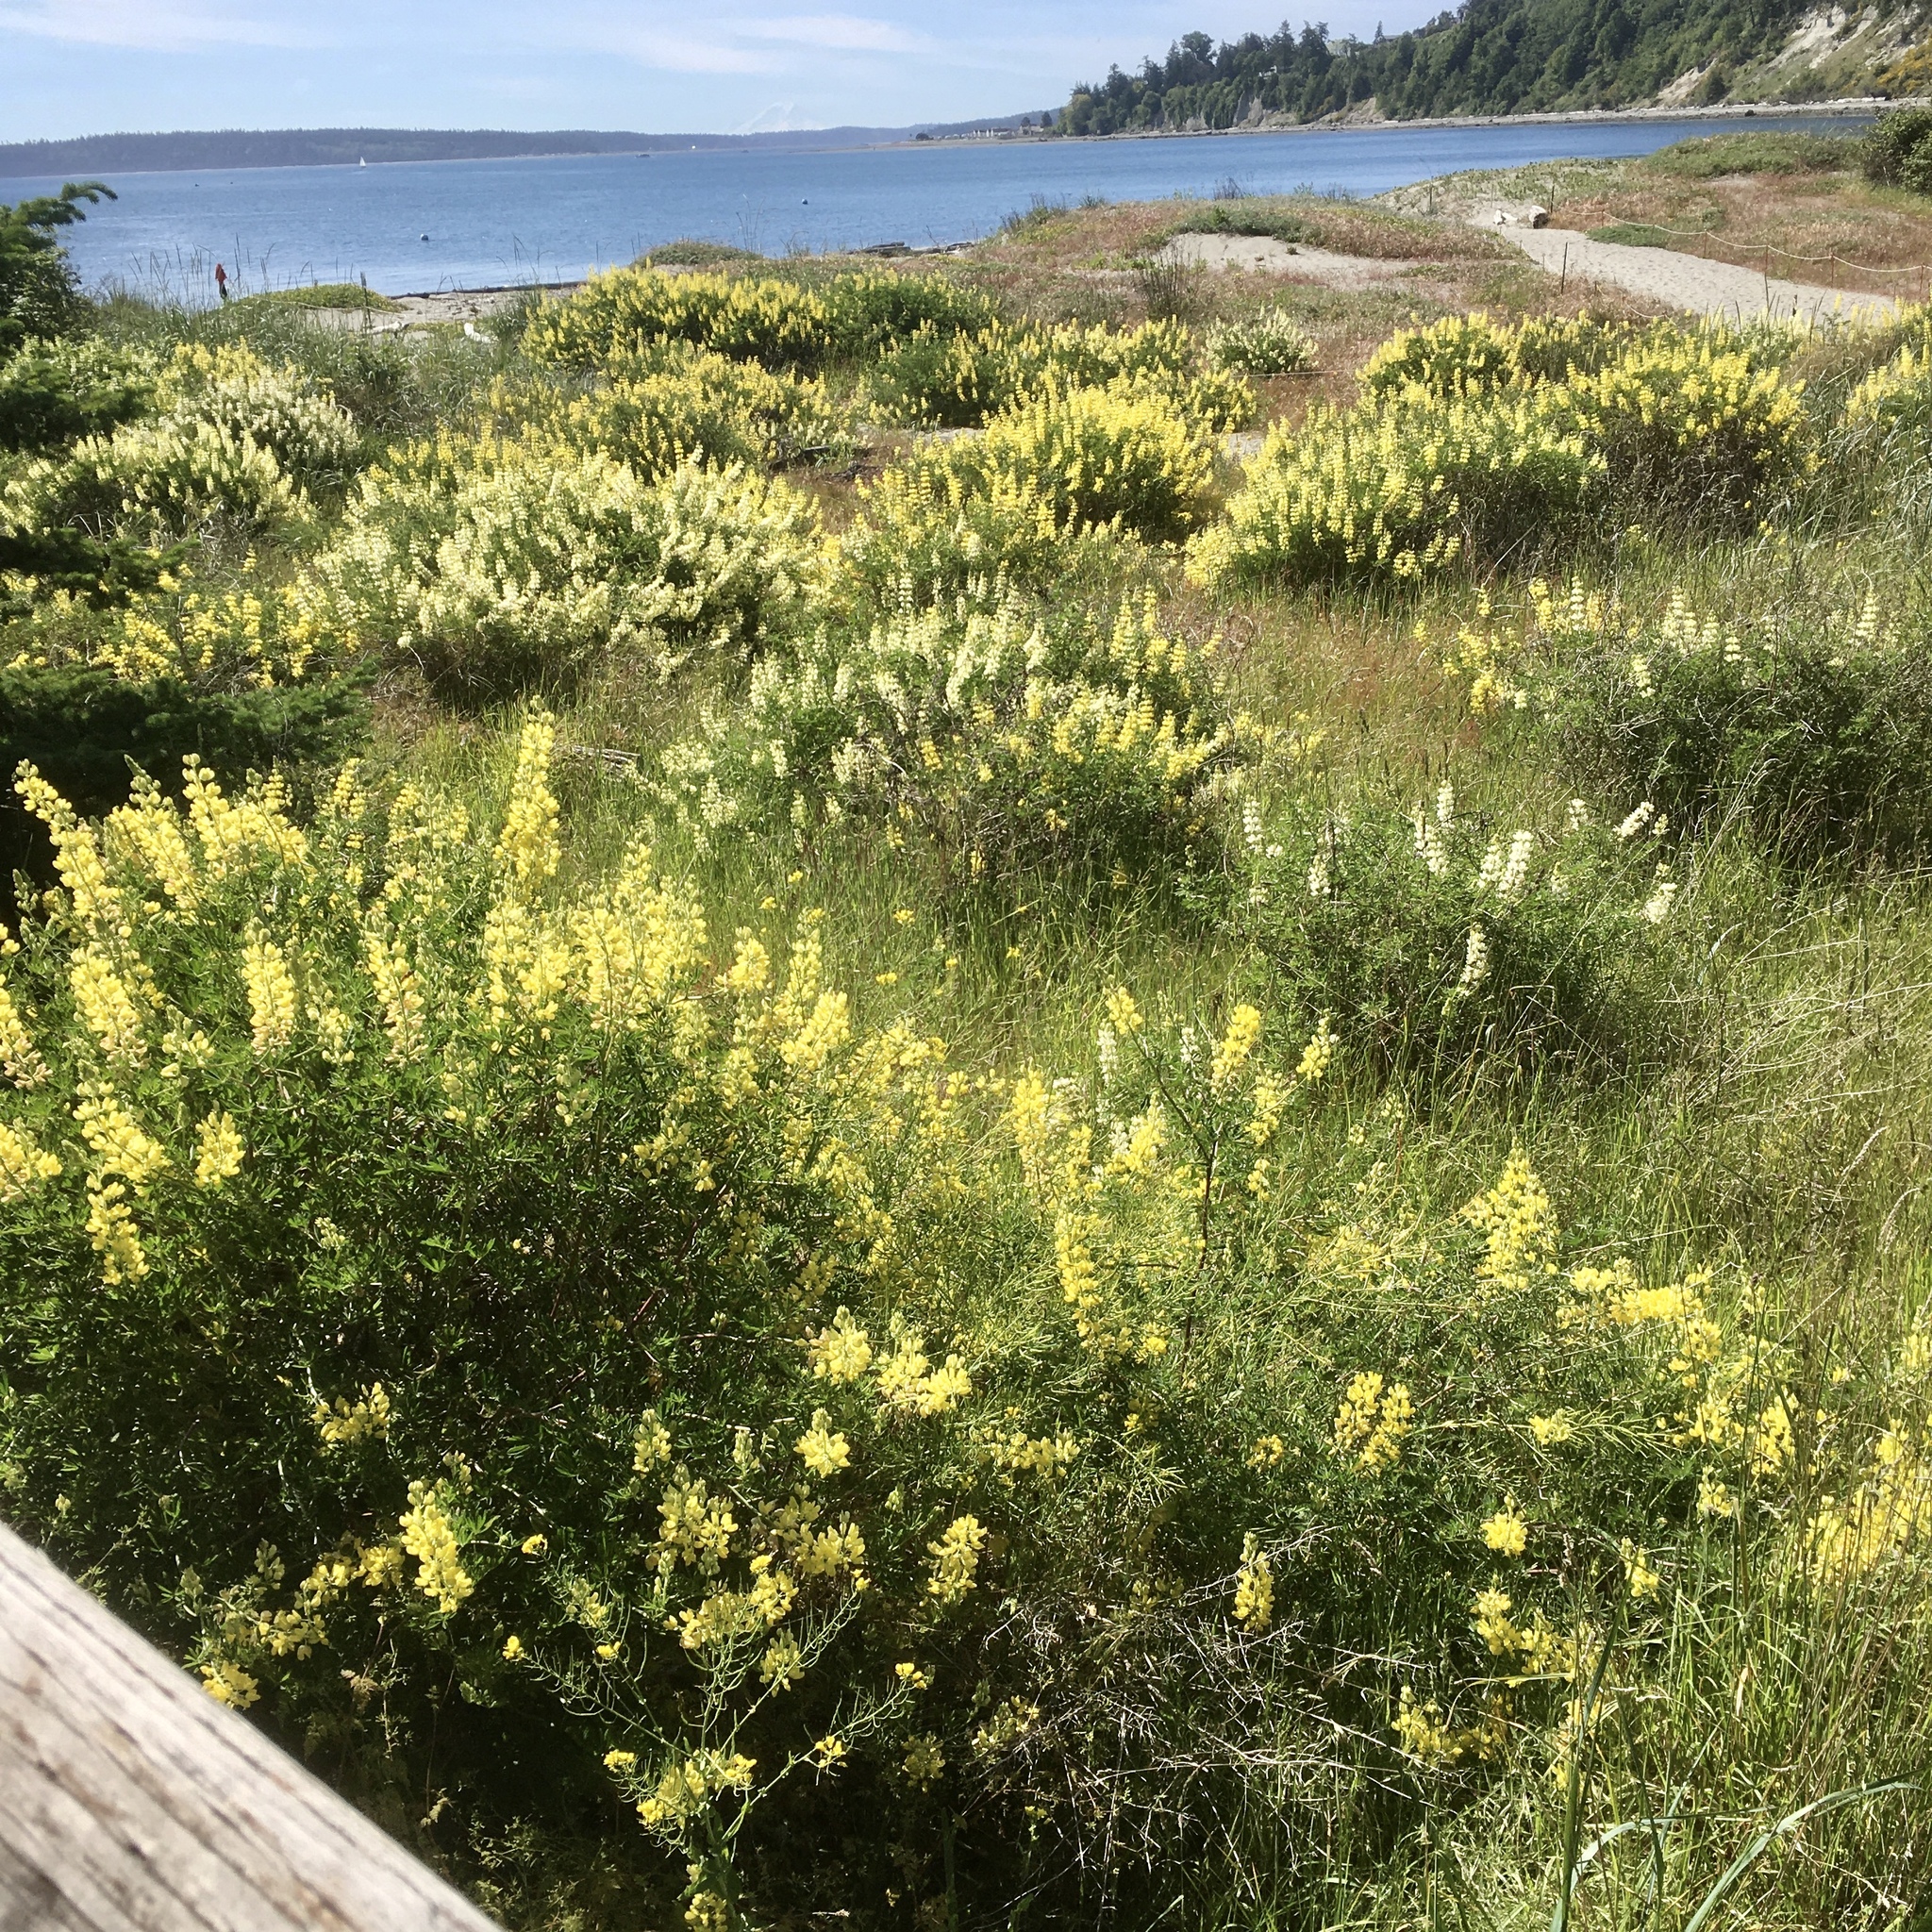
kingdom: Plantae
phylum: Tracheophyta
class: Magnoliopsida
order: Fabales
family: Fabaceae
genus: Lupinus
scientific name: Lupinus arboreus
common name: Yellow bush lupine
